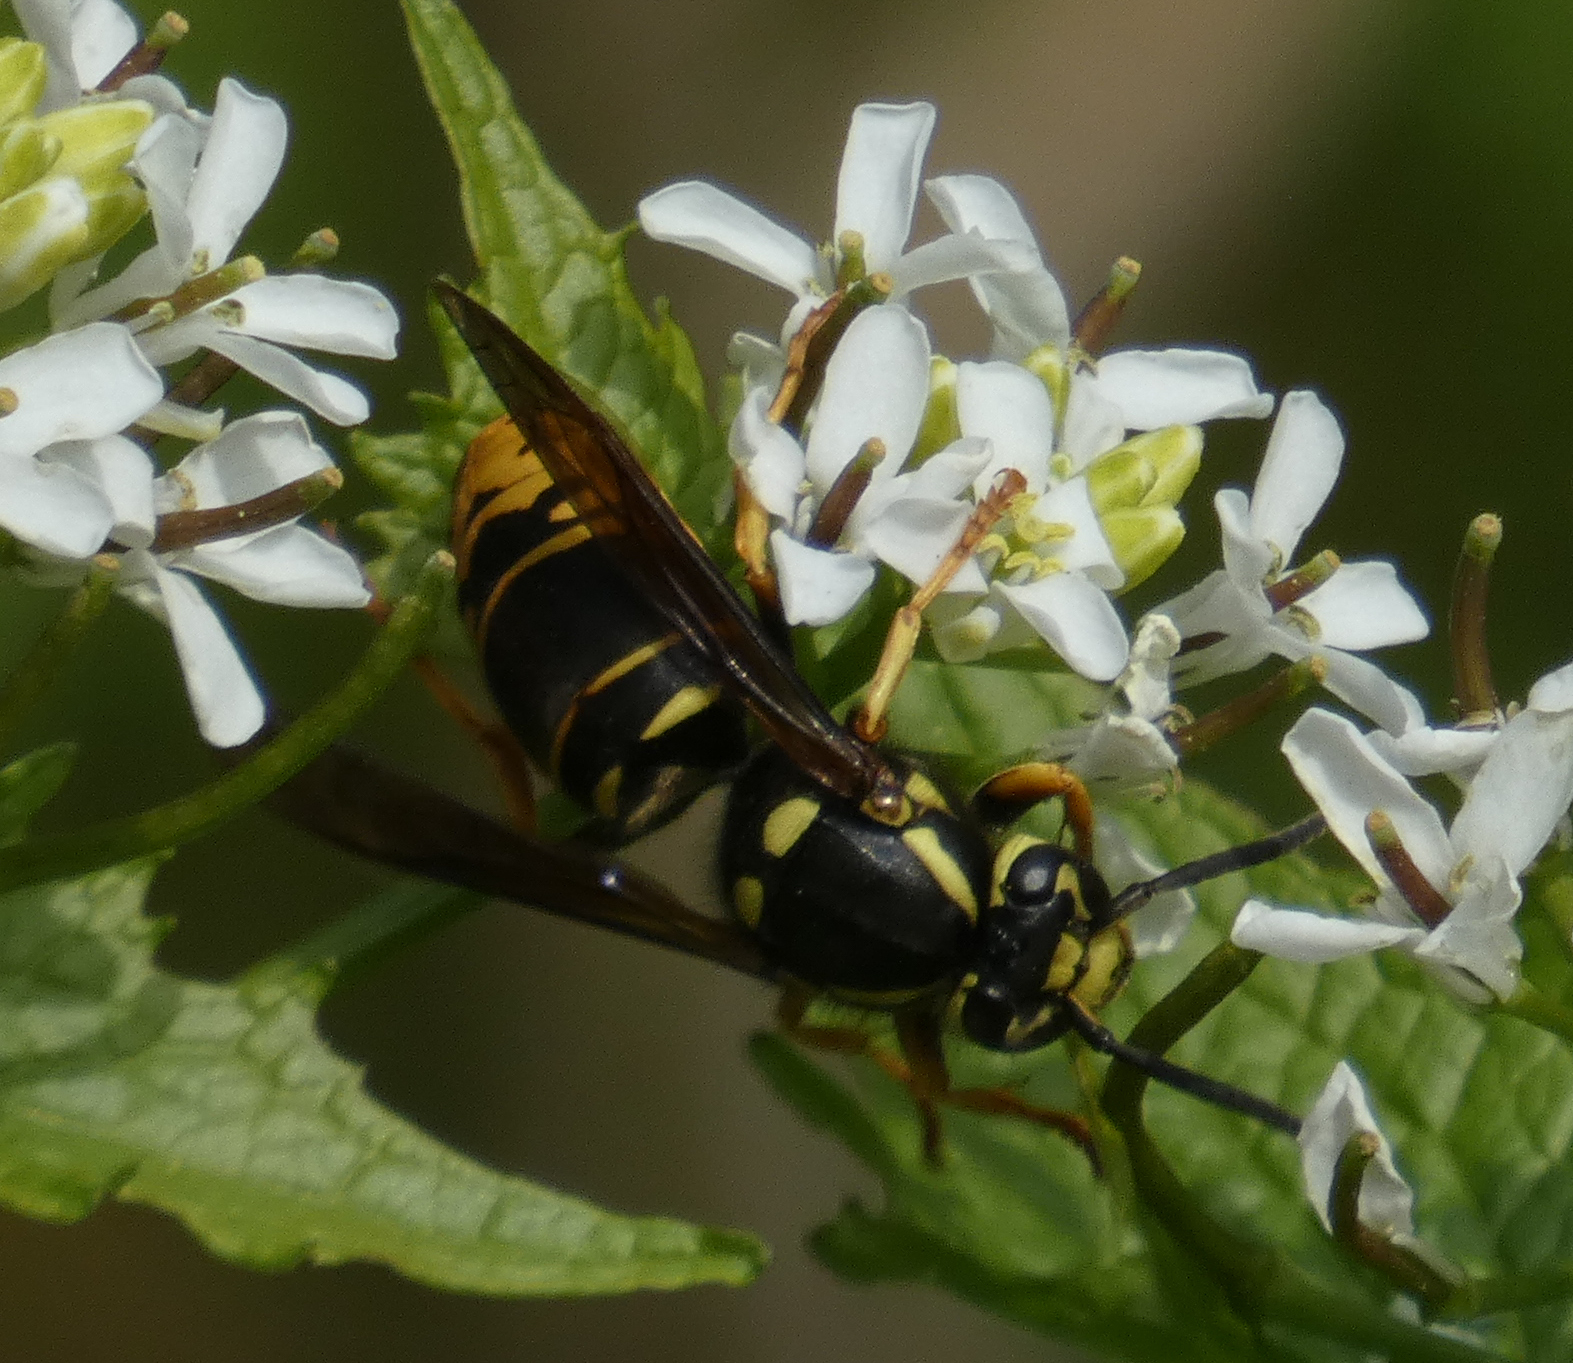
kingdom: Animalia
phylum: Arthropoda
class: Insecta
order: Hymenoptera
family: Vespidae
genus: Vespula
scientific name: Vespula vidua
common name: Widow yellowjacket
